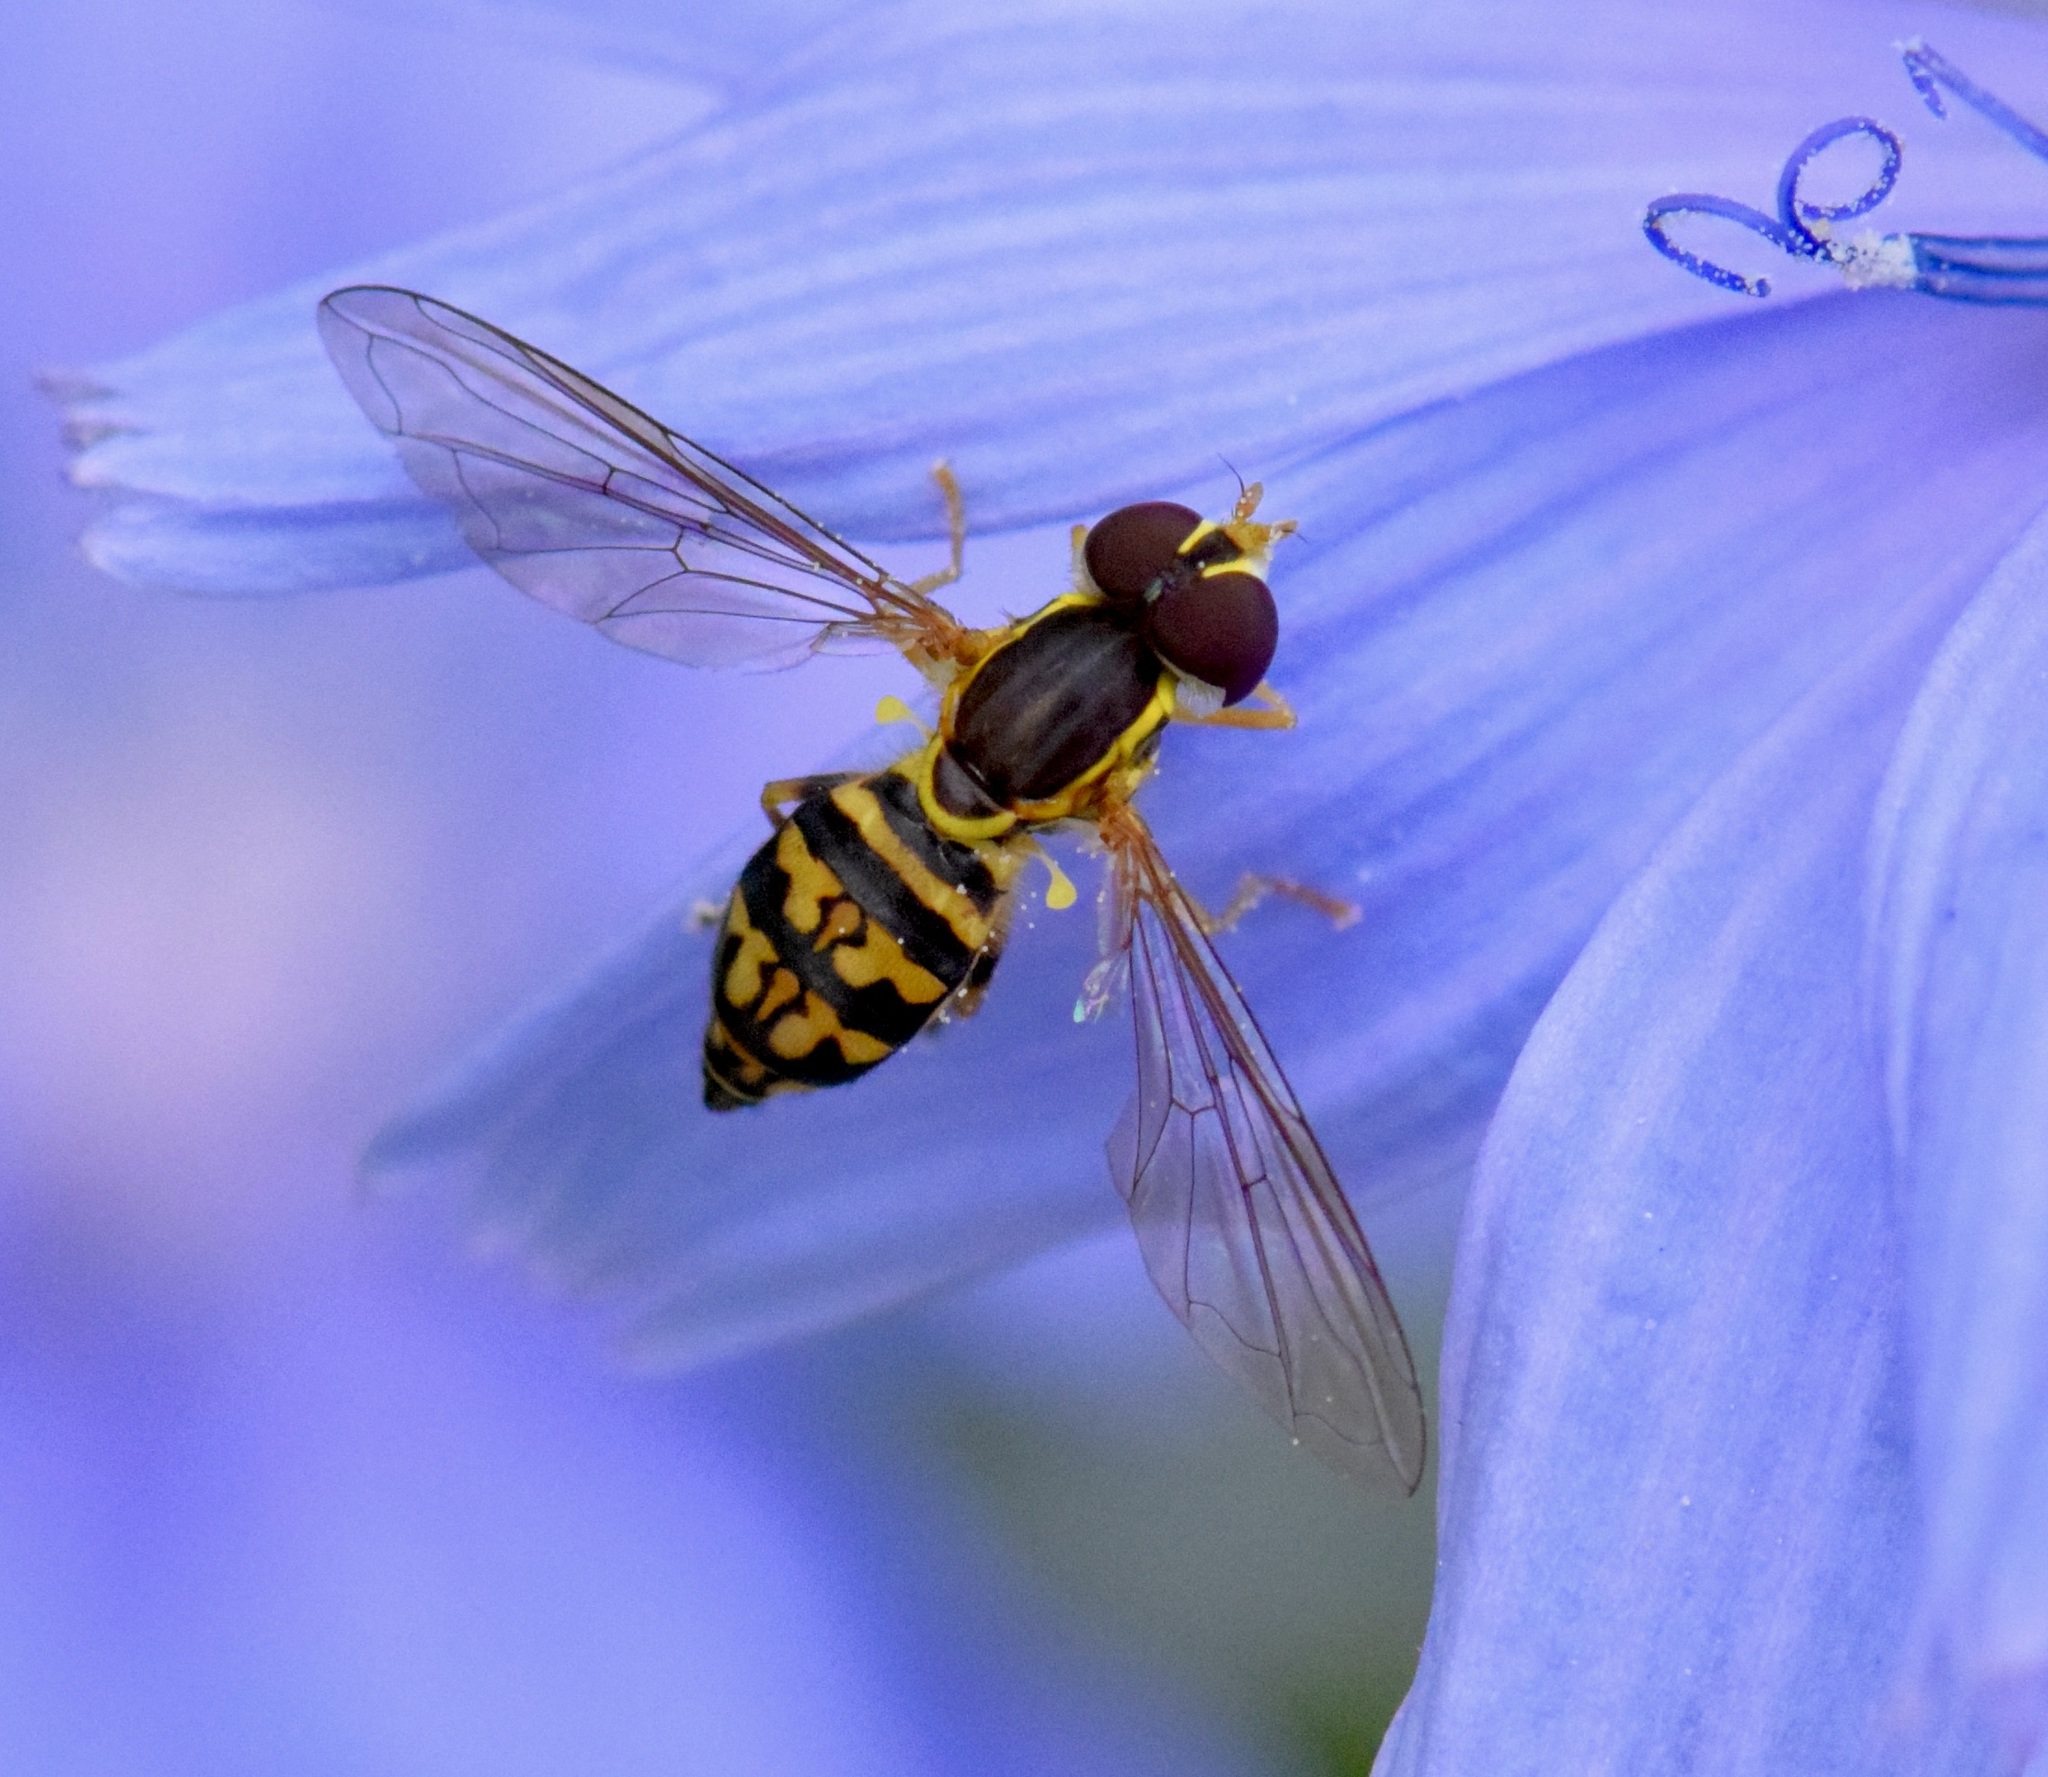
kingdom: Animalia
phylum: Arthropoda
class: Insecta
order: Diptera
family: Syrphidae
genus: Toxomerus
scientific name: Toxomerus geminatus
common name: Eastern calligrapher
